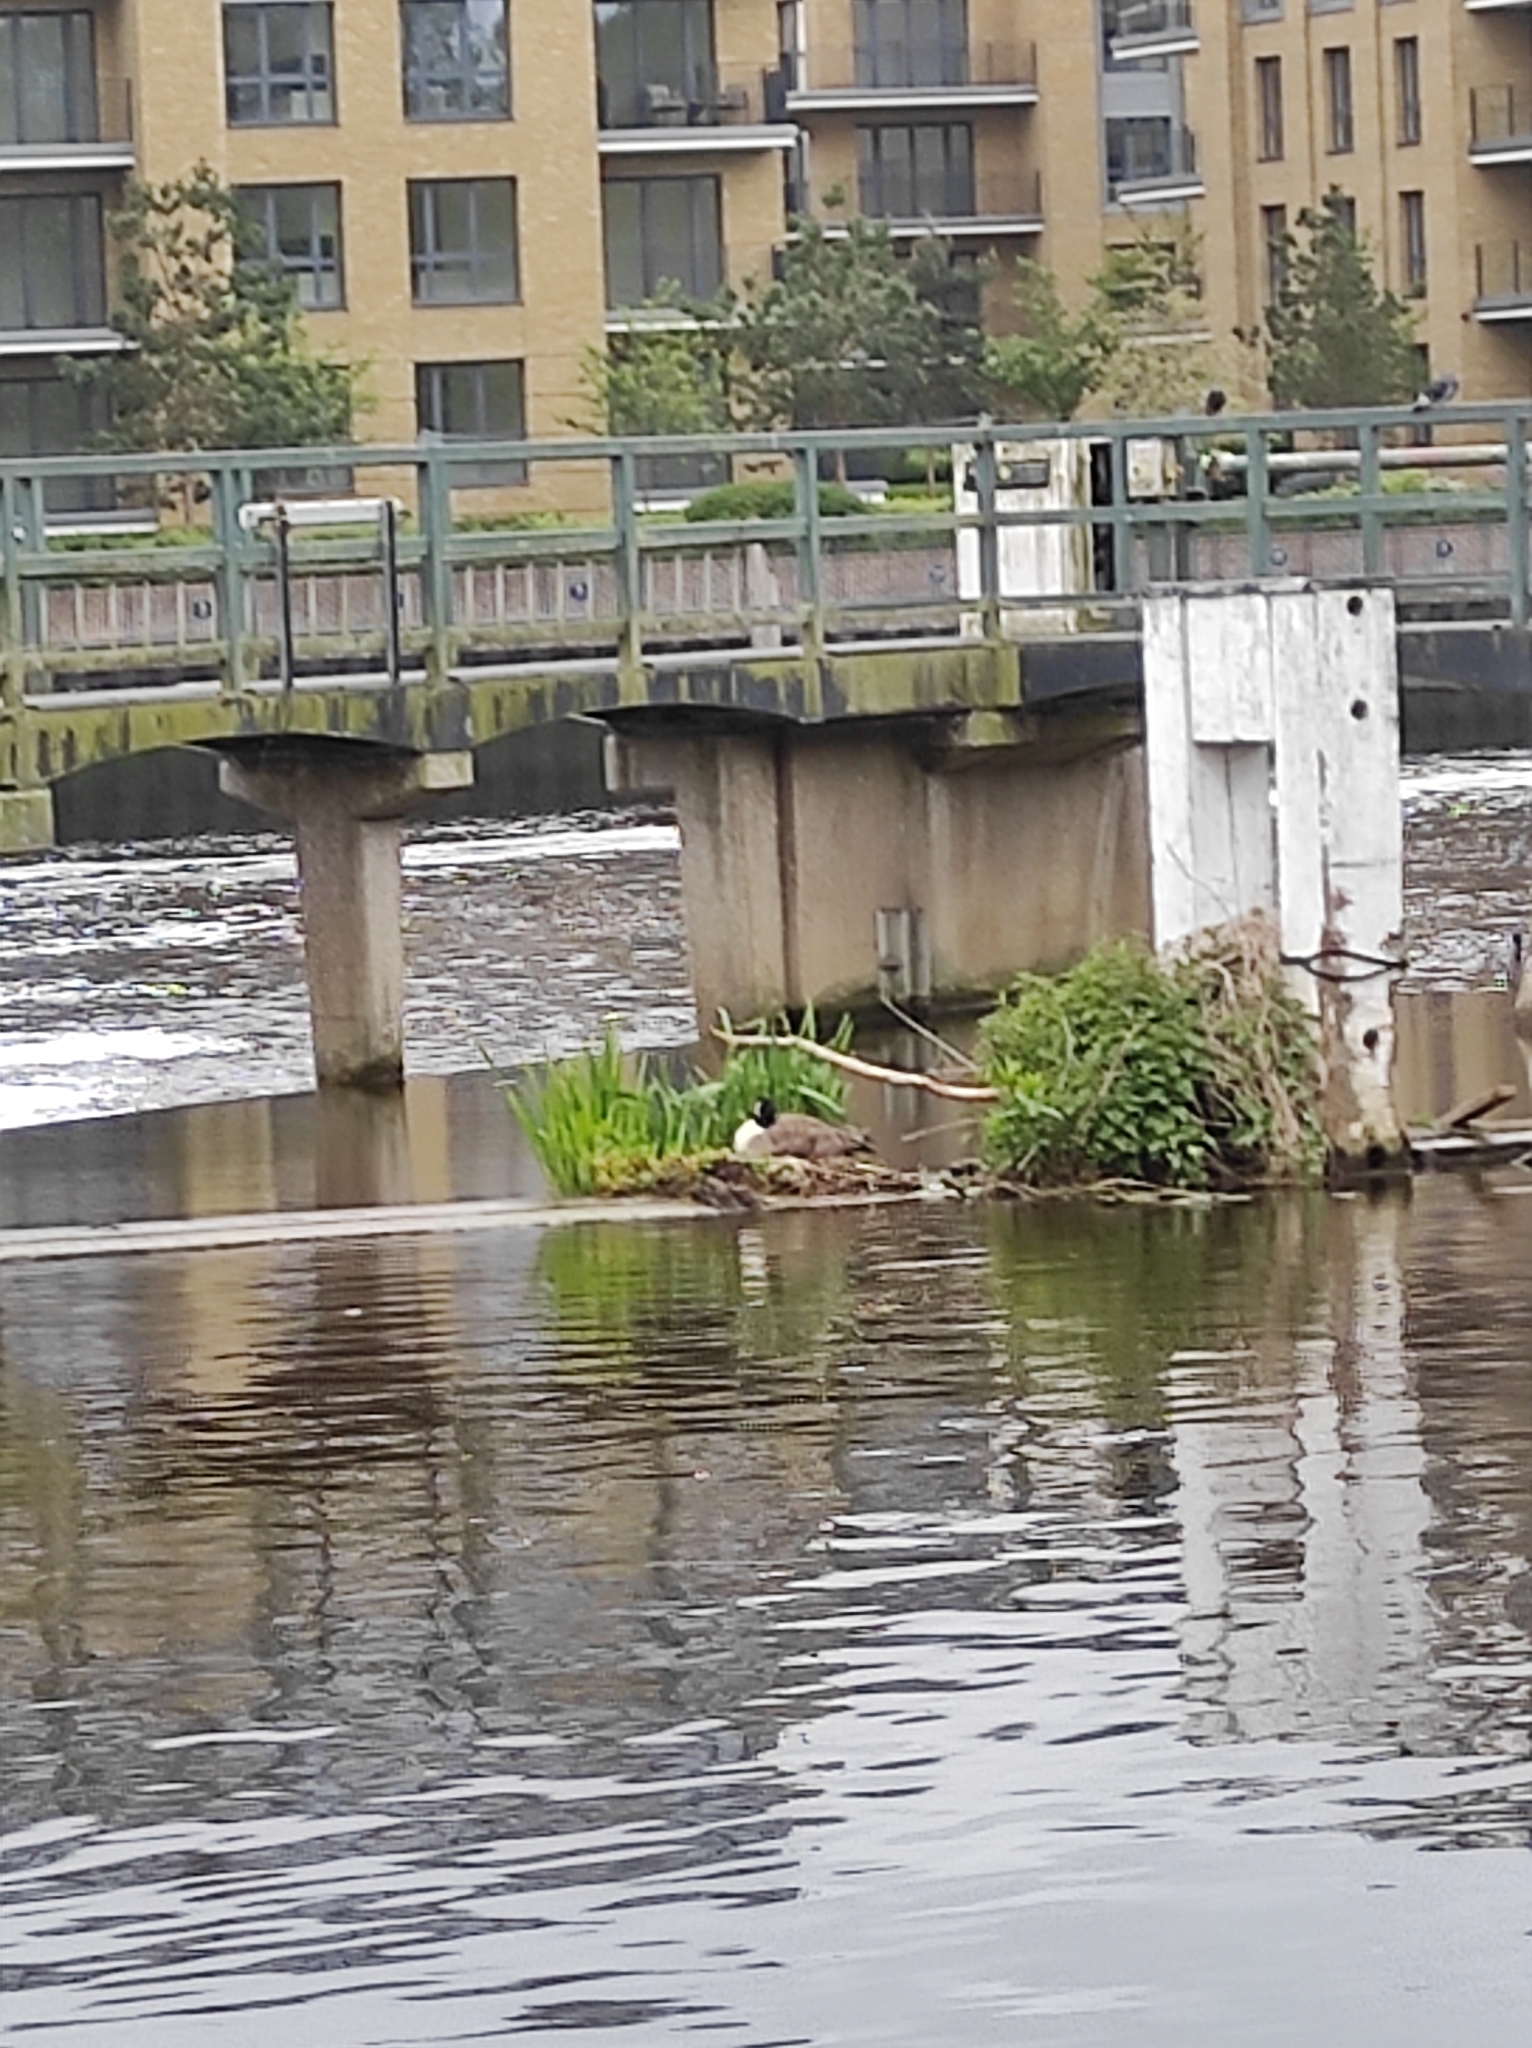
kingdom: Animalia
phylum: Chordata
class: Aves
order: Anseriformes
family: Anatidae
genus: Branta
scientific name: Branta canadensis
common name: Canada goose
